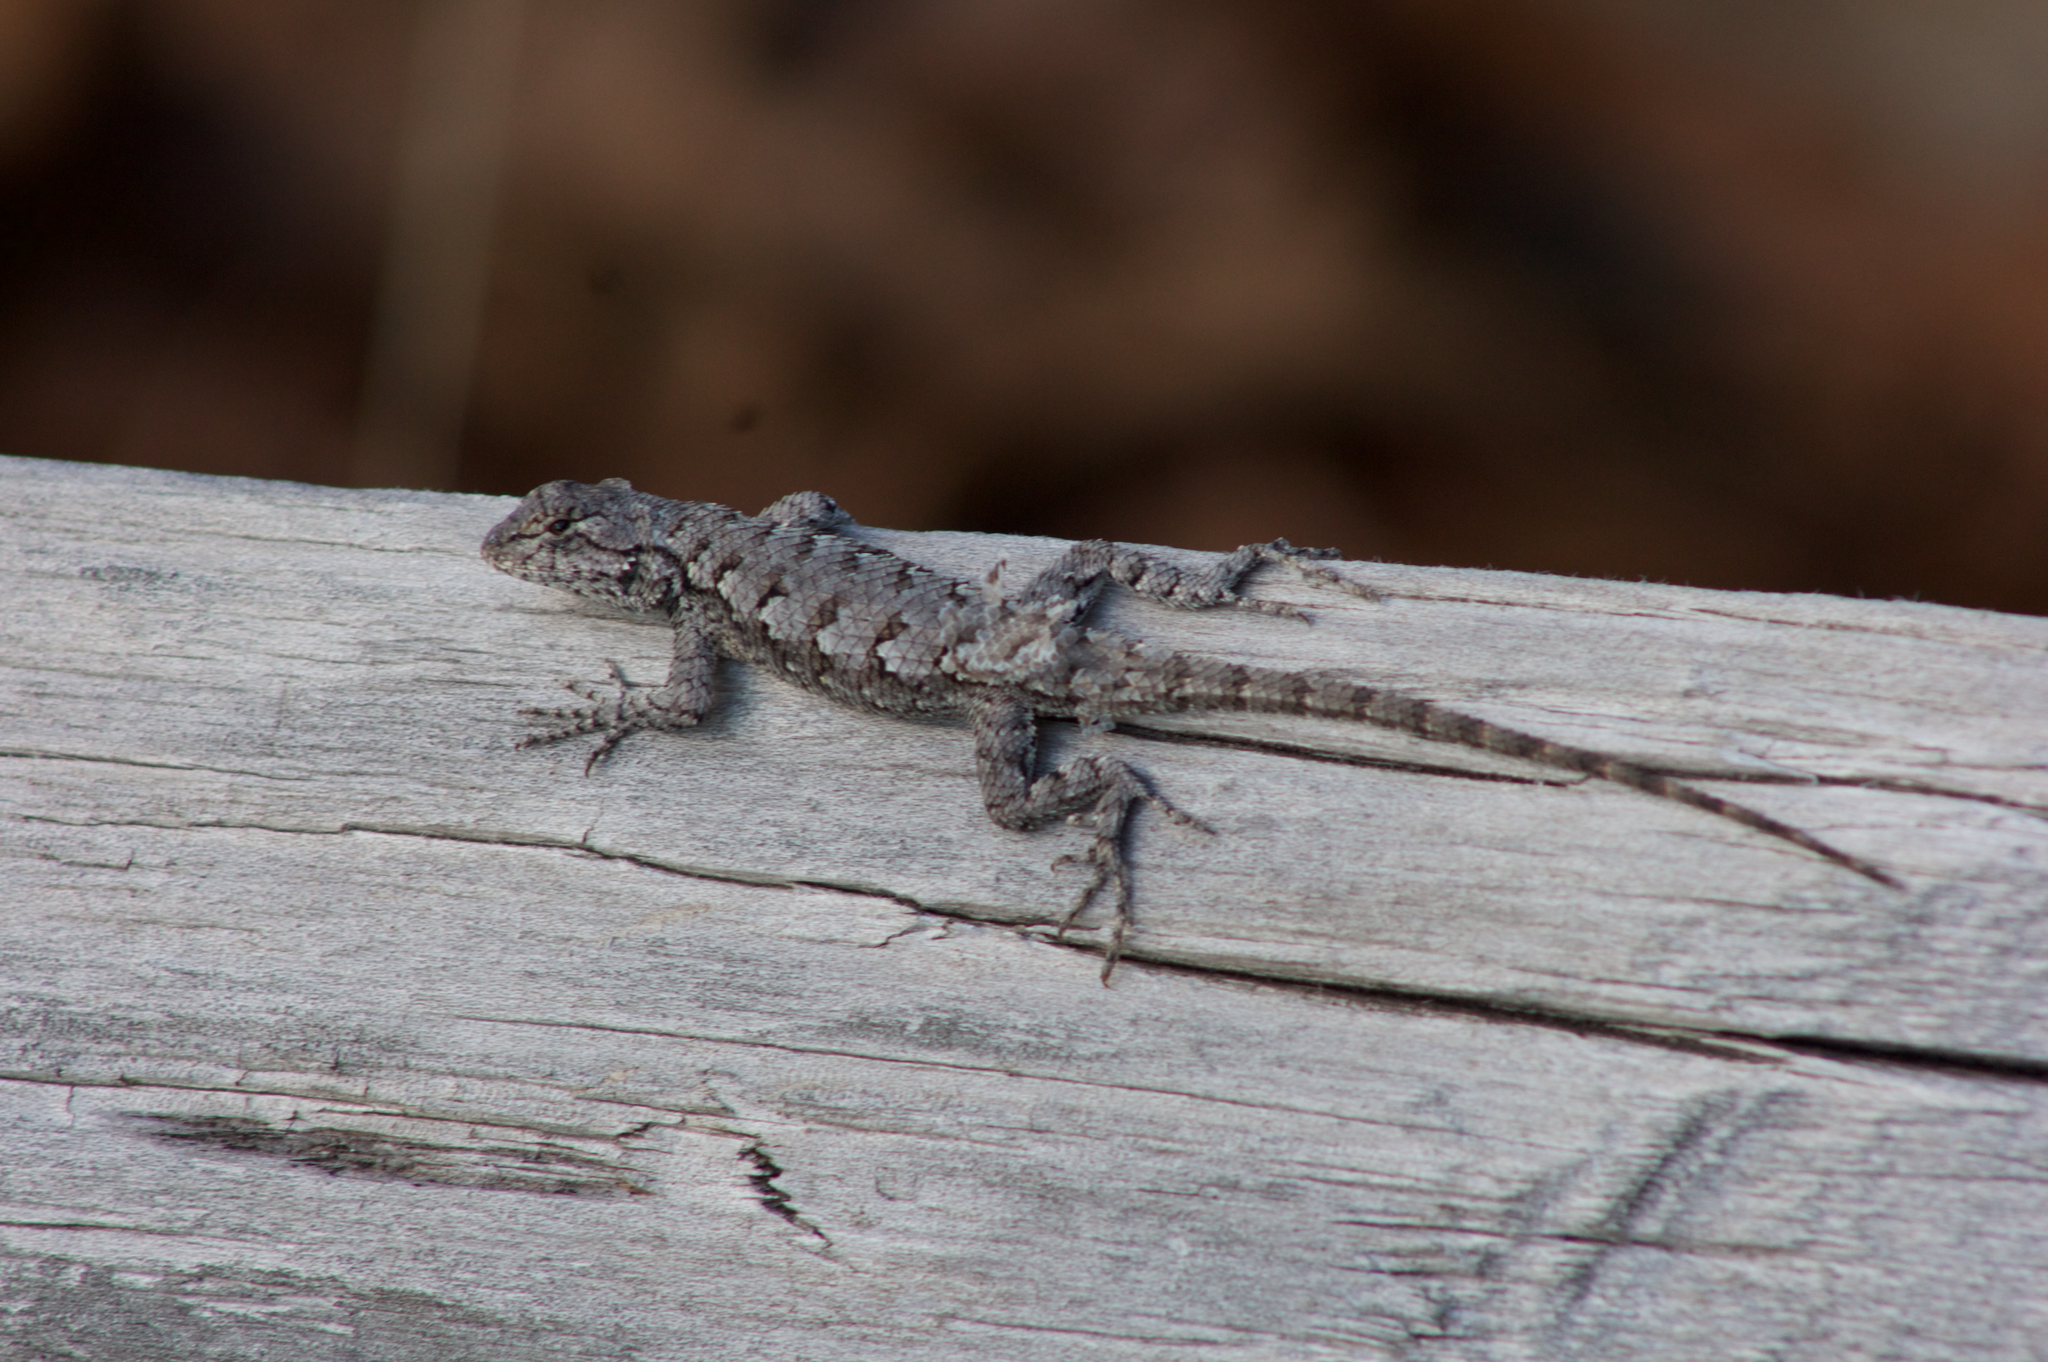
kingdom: Animalia
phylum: Chordata
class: Squamata
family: Phrynosomatidae
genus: Sceloporus
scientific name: Sceloporus undulatus
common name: Eastern fence lizard
